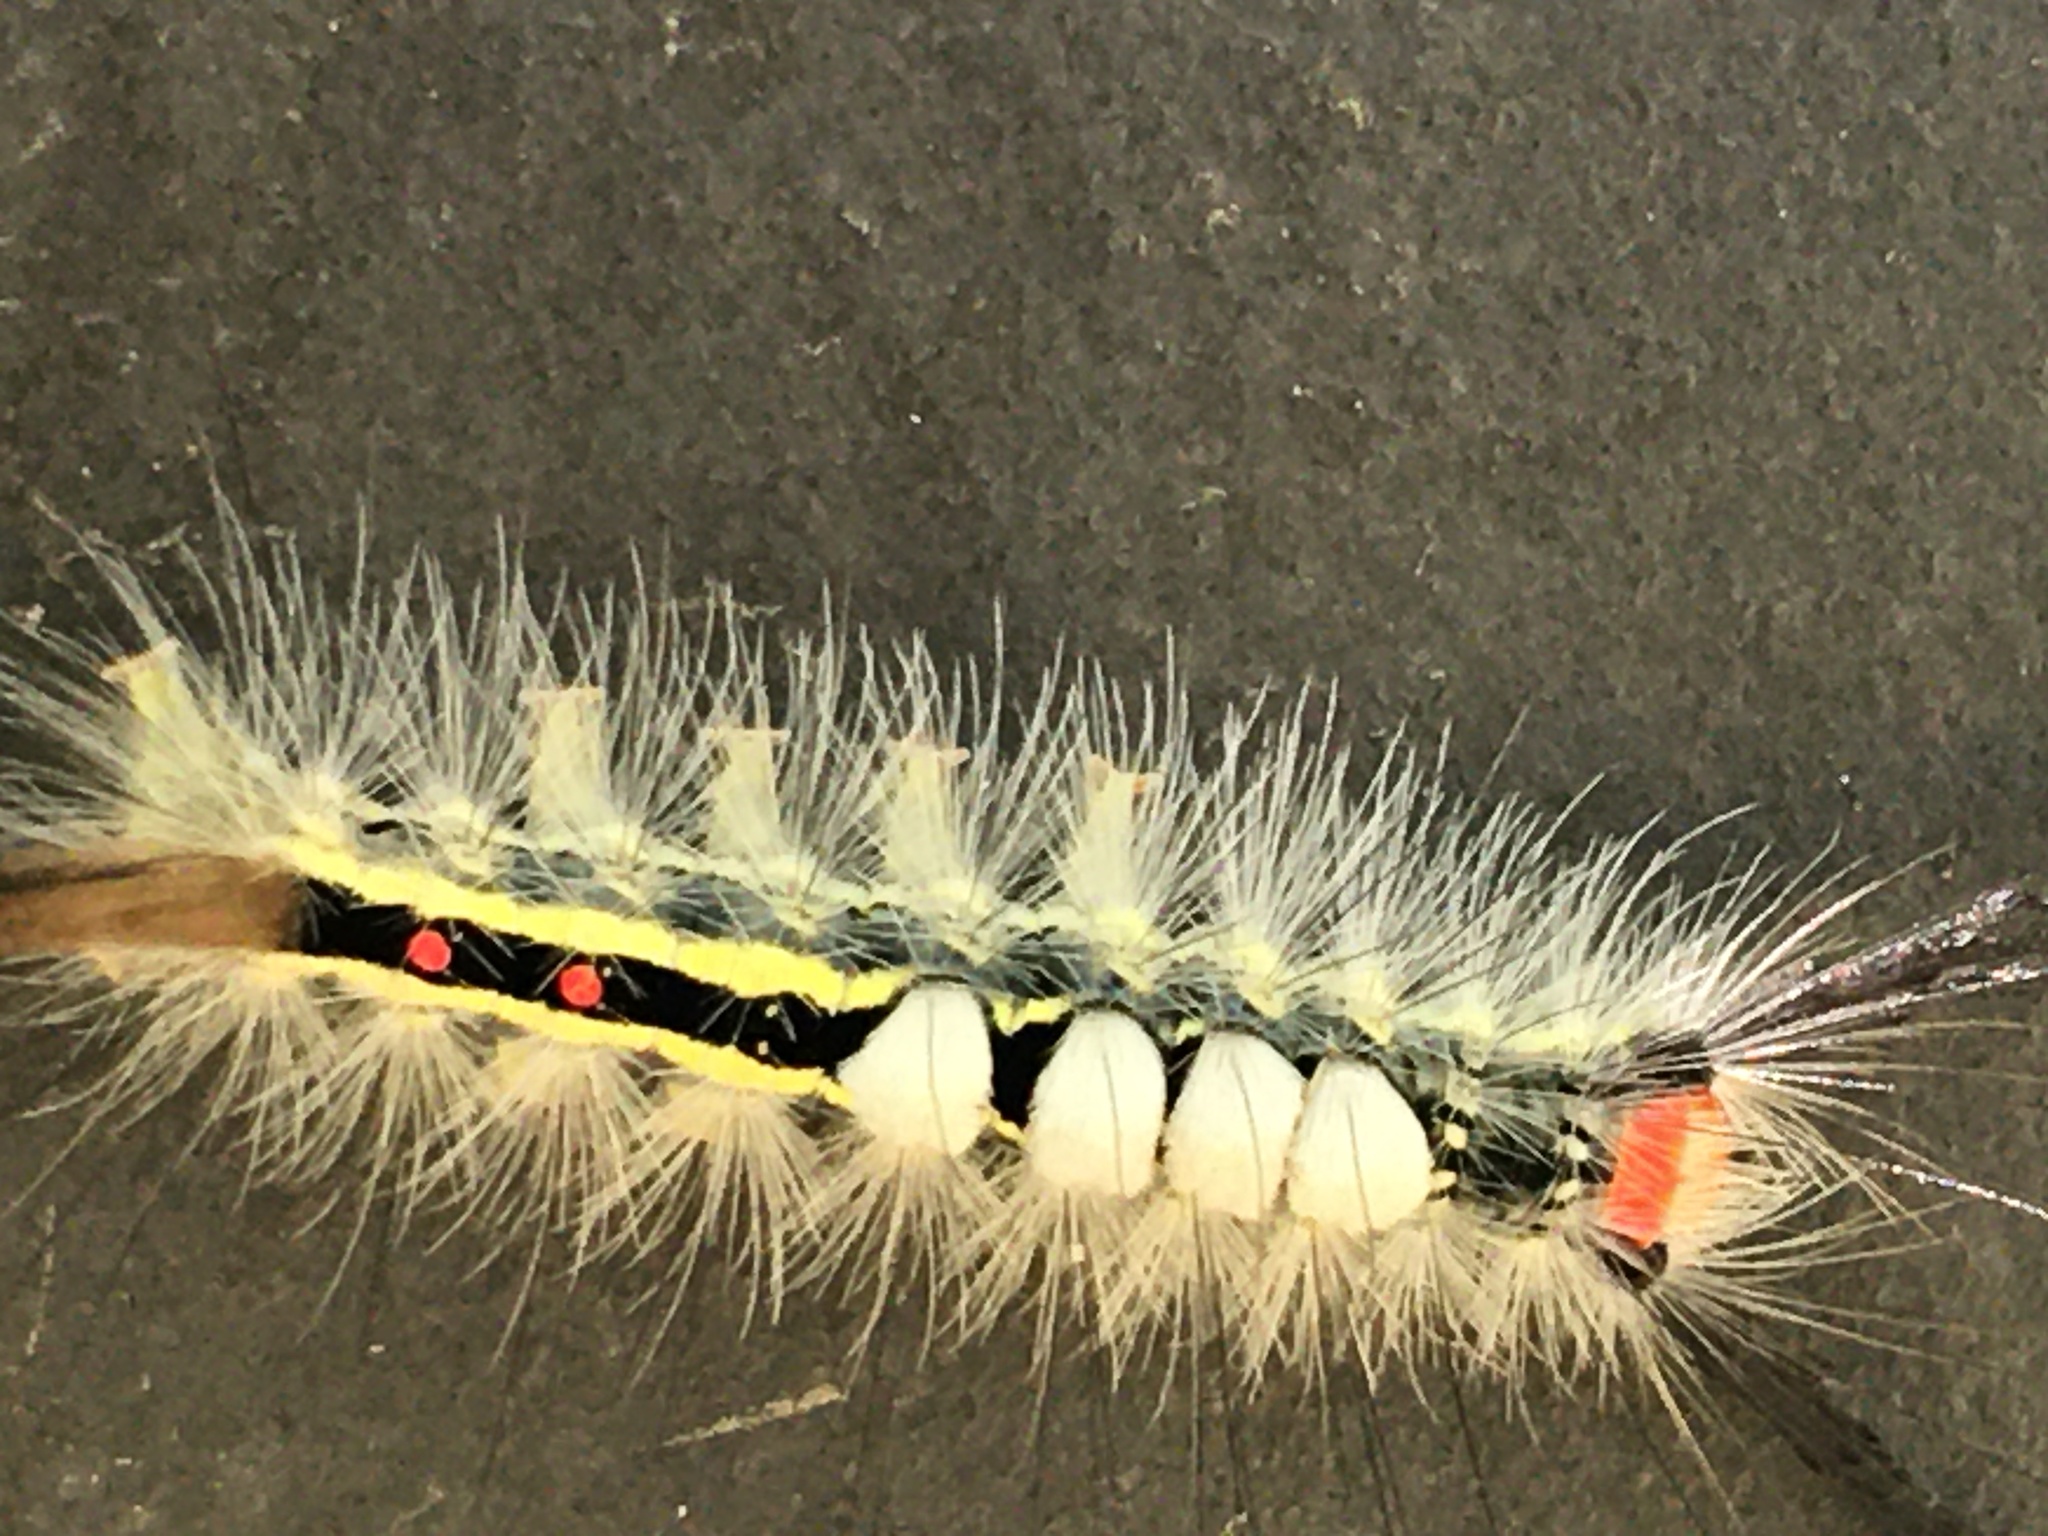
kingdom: Animalia
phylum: Arthropoda
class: Insecta
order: Lepidoptera
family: Erebidae
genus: Orgyia
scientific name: Orgyia leucostigma
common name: White-marked tussock moth
